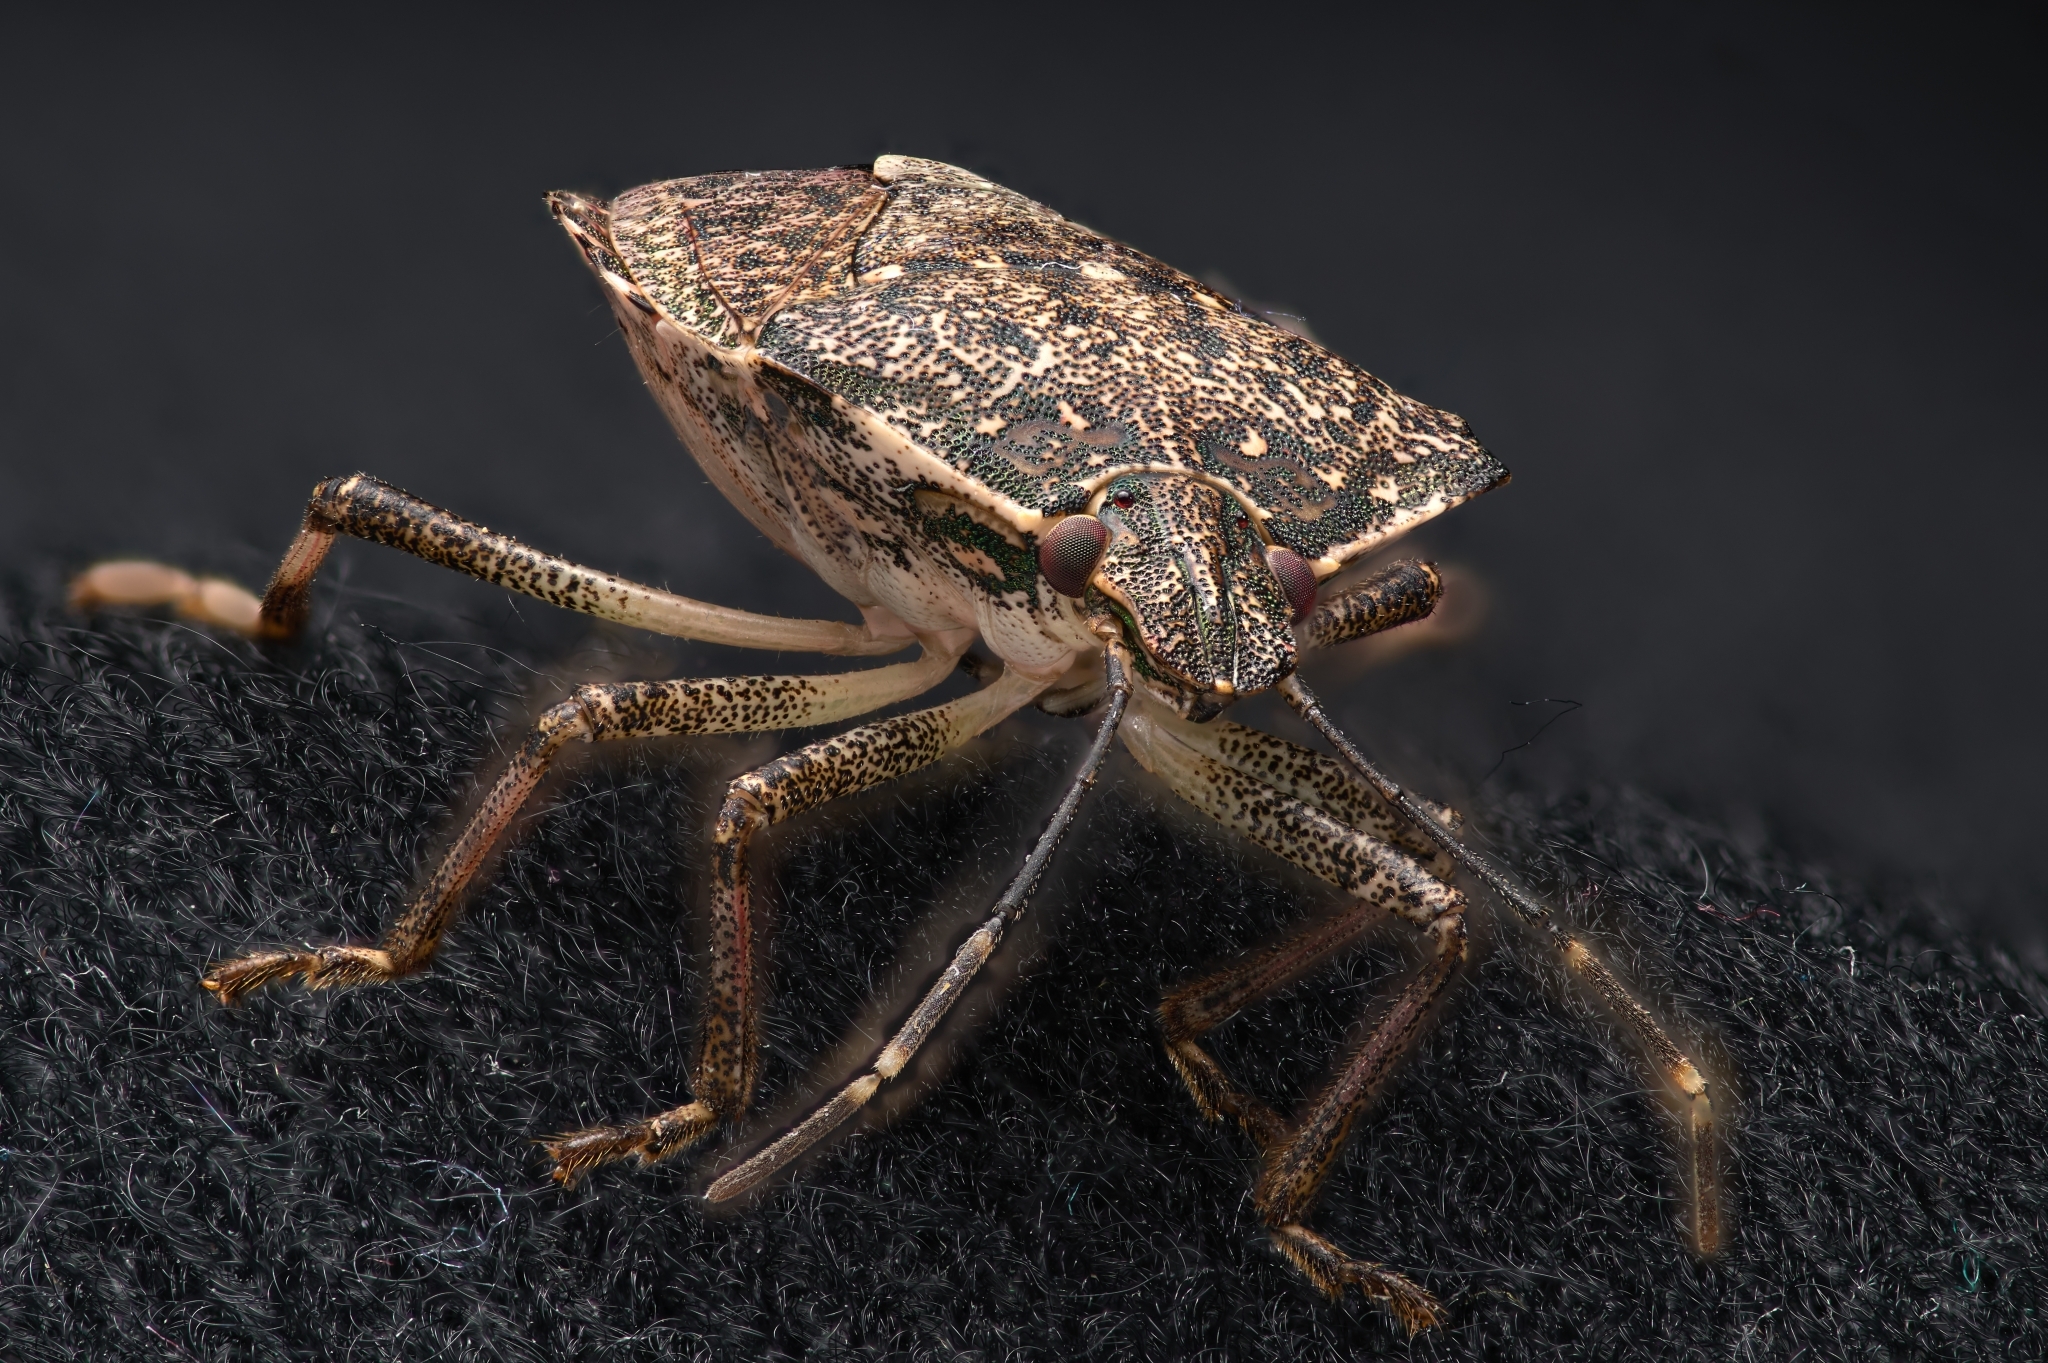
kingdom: Animalia
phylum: Arthropoda
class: Insecta
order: Hemiptera
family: Pentatomidae
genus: Halyomorpha
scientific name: Halyomorpha halys
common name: Brown marmorated stink bug
